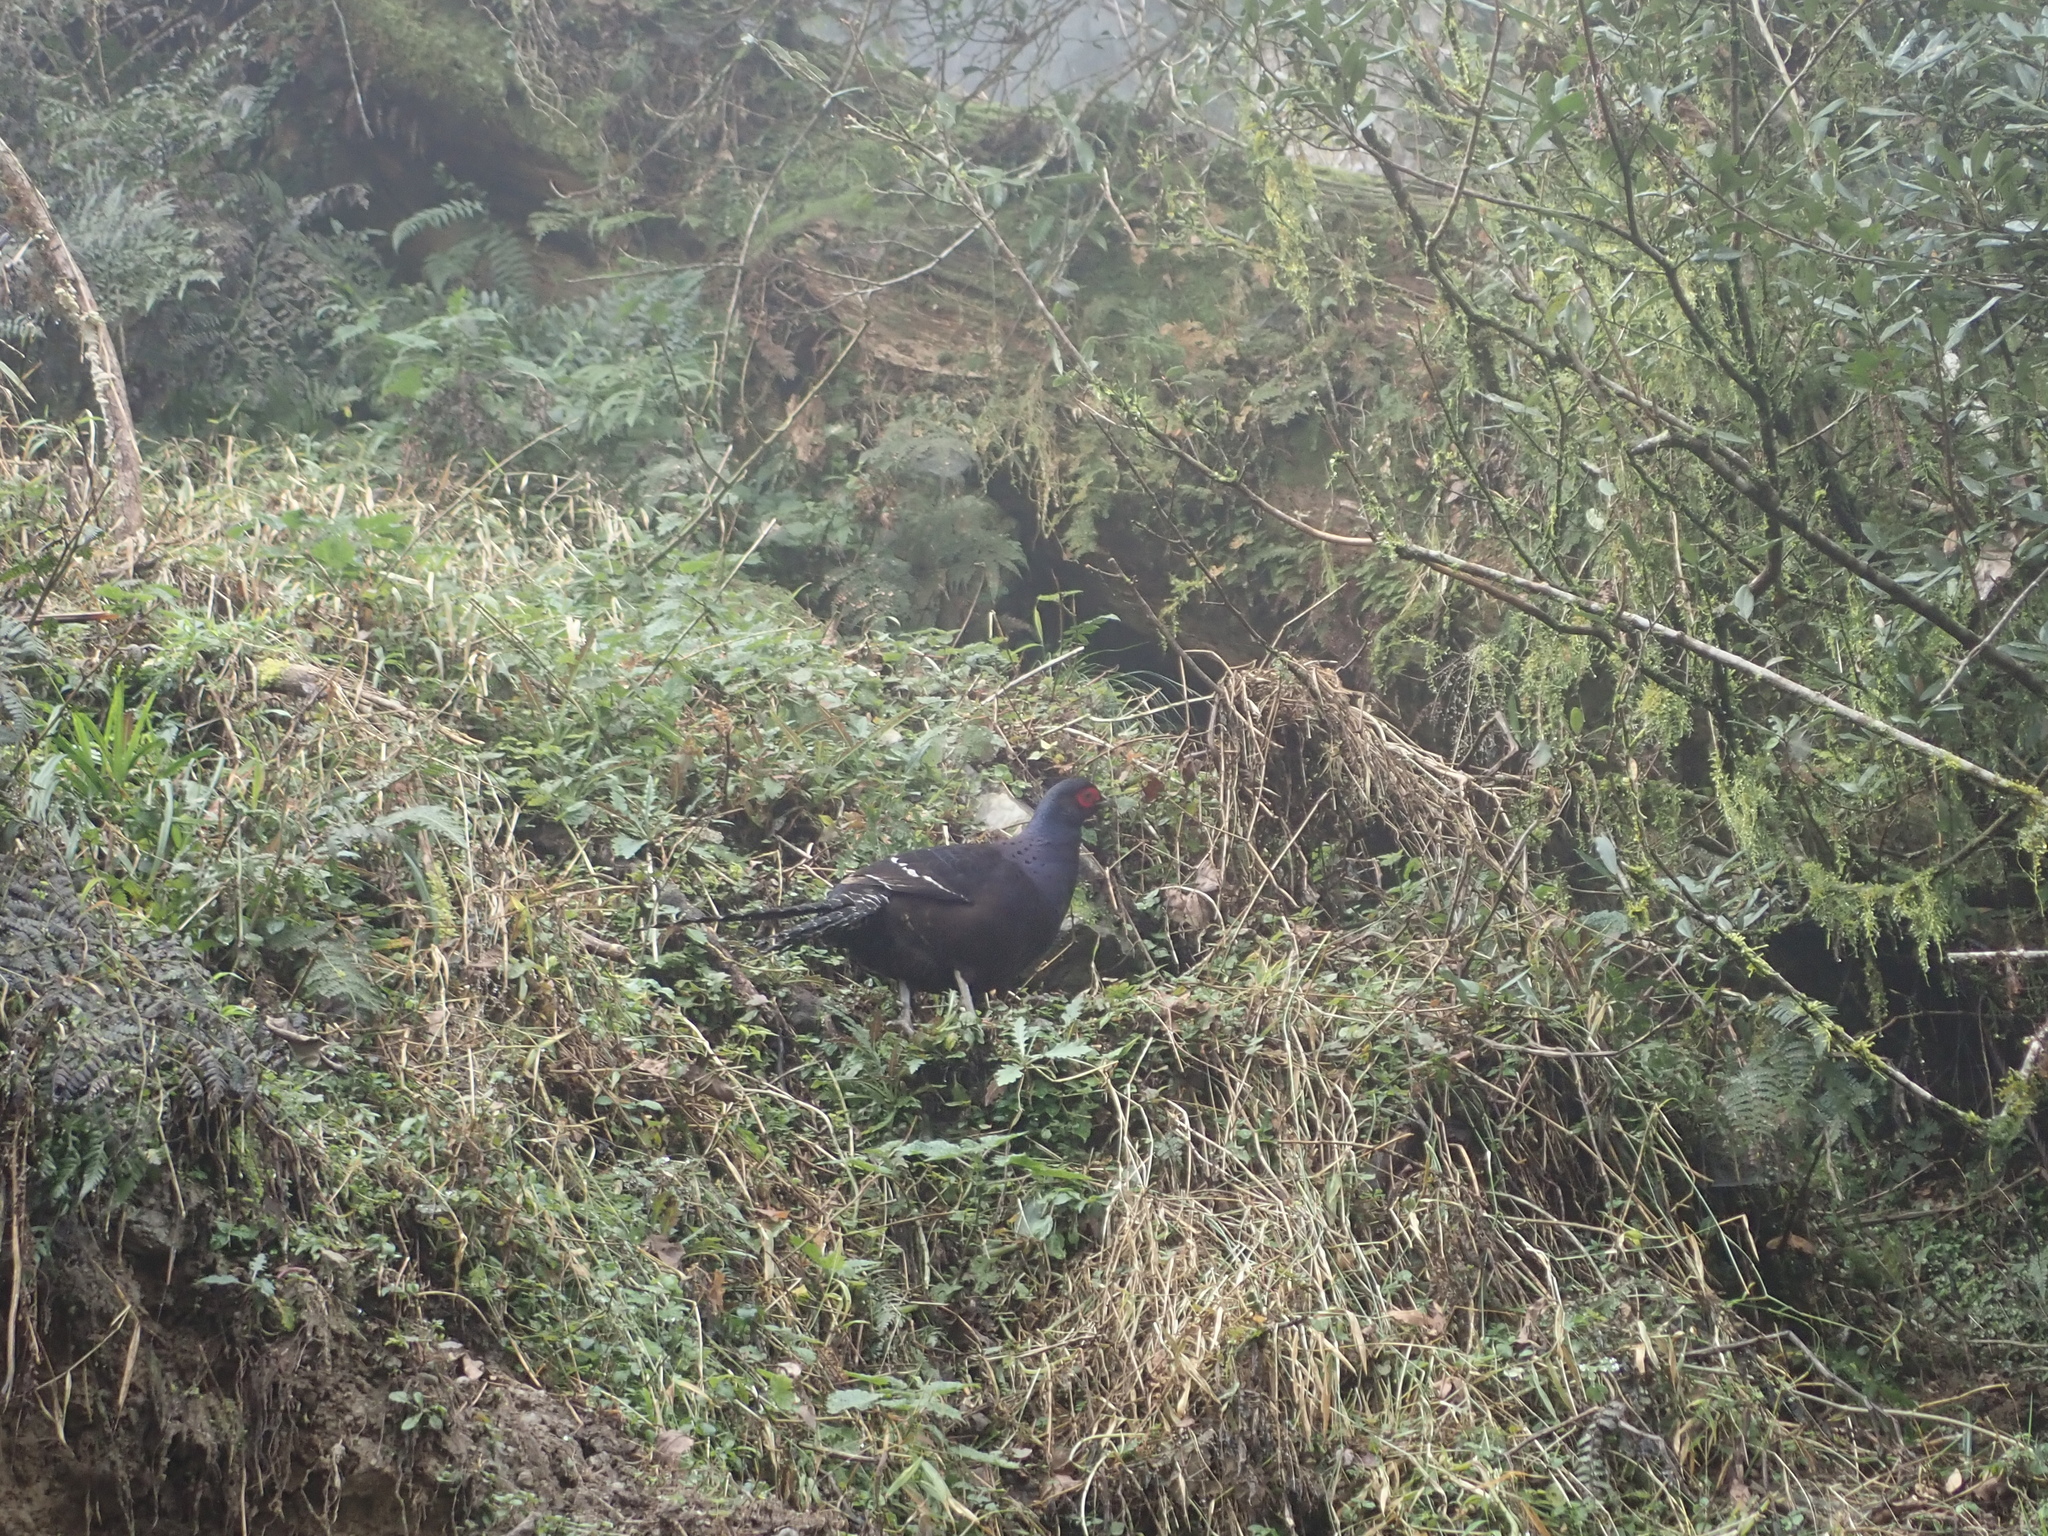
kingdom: Animalia
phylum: Chordata
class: Aves
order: Galliformes
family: Phasianidae
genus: Syrmaticus
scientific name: Syrmaticus mikado
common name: Mikado pheasant
